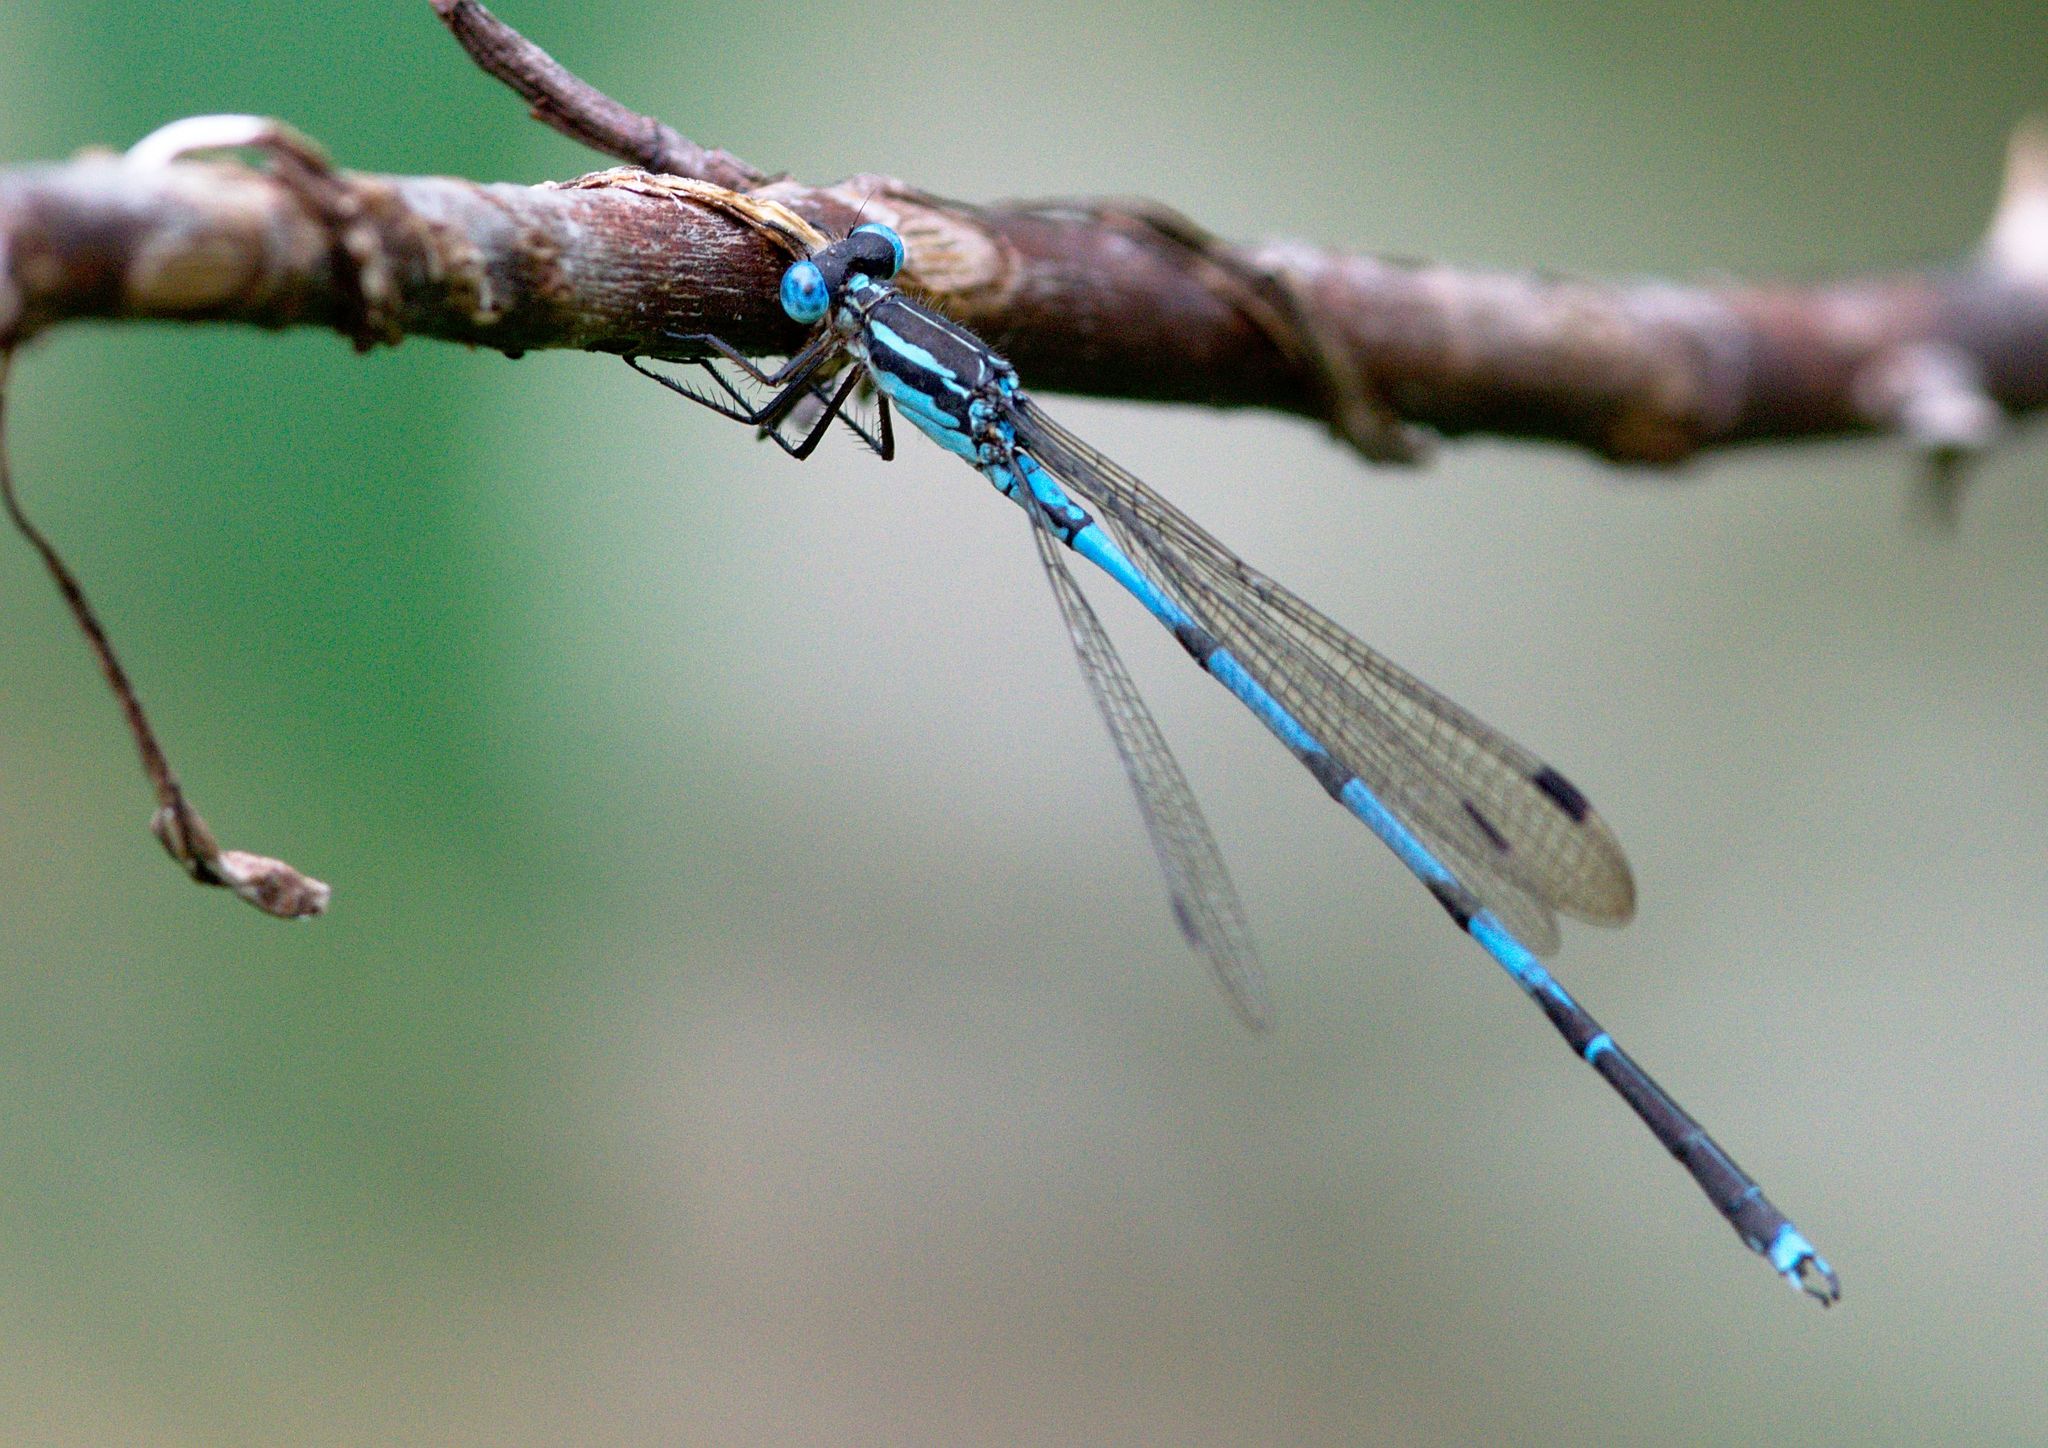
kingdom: Animalia
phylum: Arthropoda
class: Insecta
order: Odonata
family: Lestidae
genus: Indolestes
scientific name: Indolestes cyaneus
